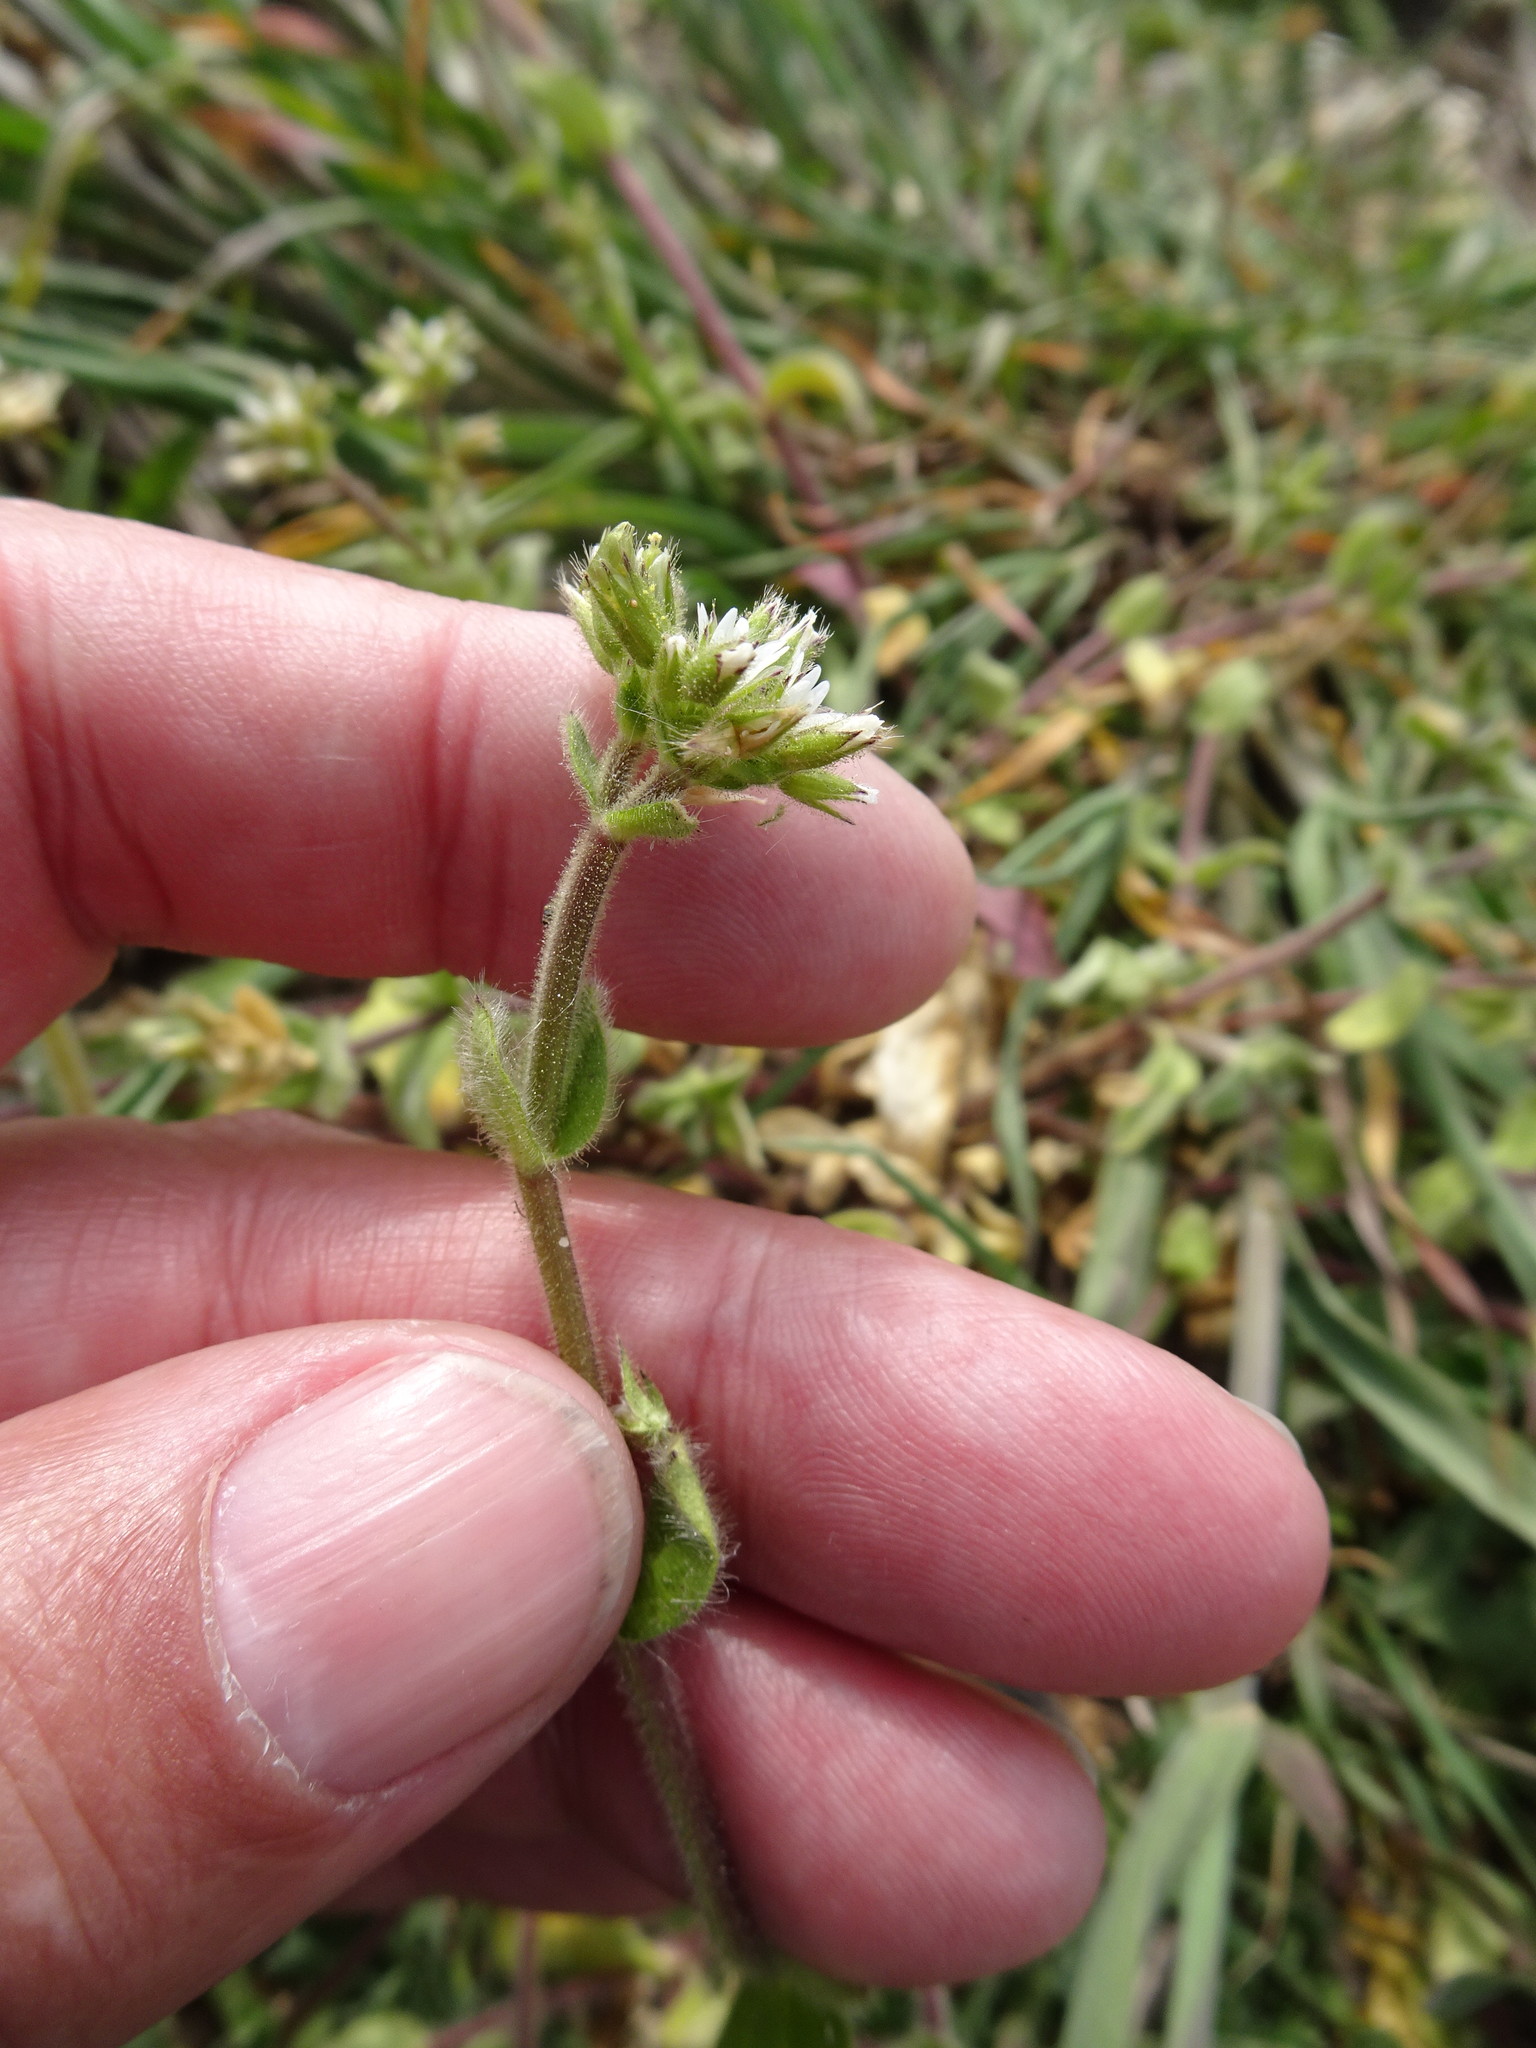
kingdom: Plantae
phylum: Tracheophyta
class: Magnoliopsida
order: Caryophyllales
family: Caryophyllaceae
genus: Cerastium
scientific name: Cerastium glomeratum
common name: Sticky chickweed
